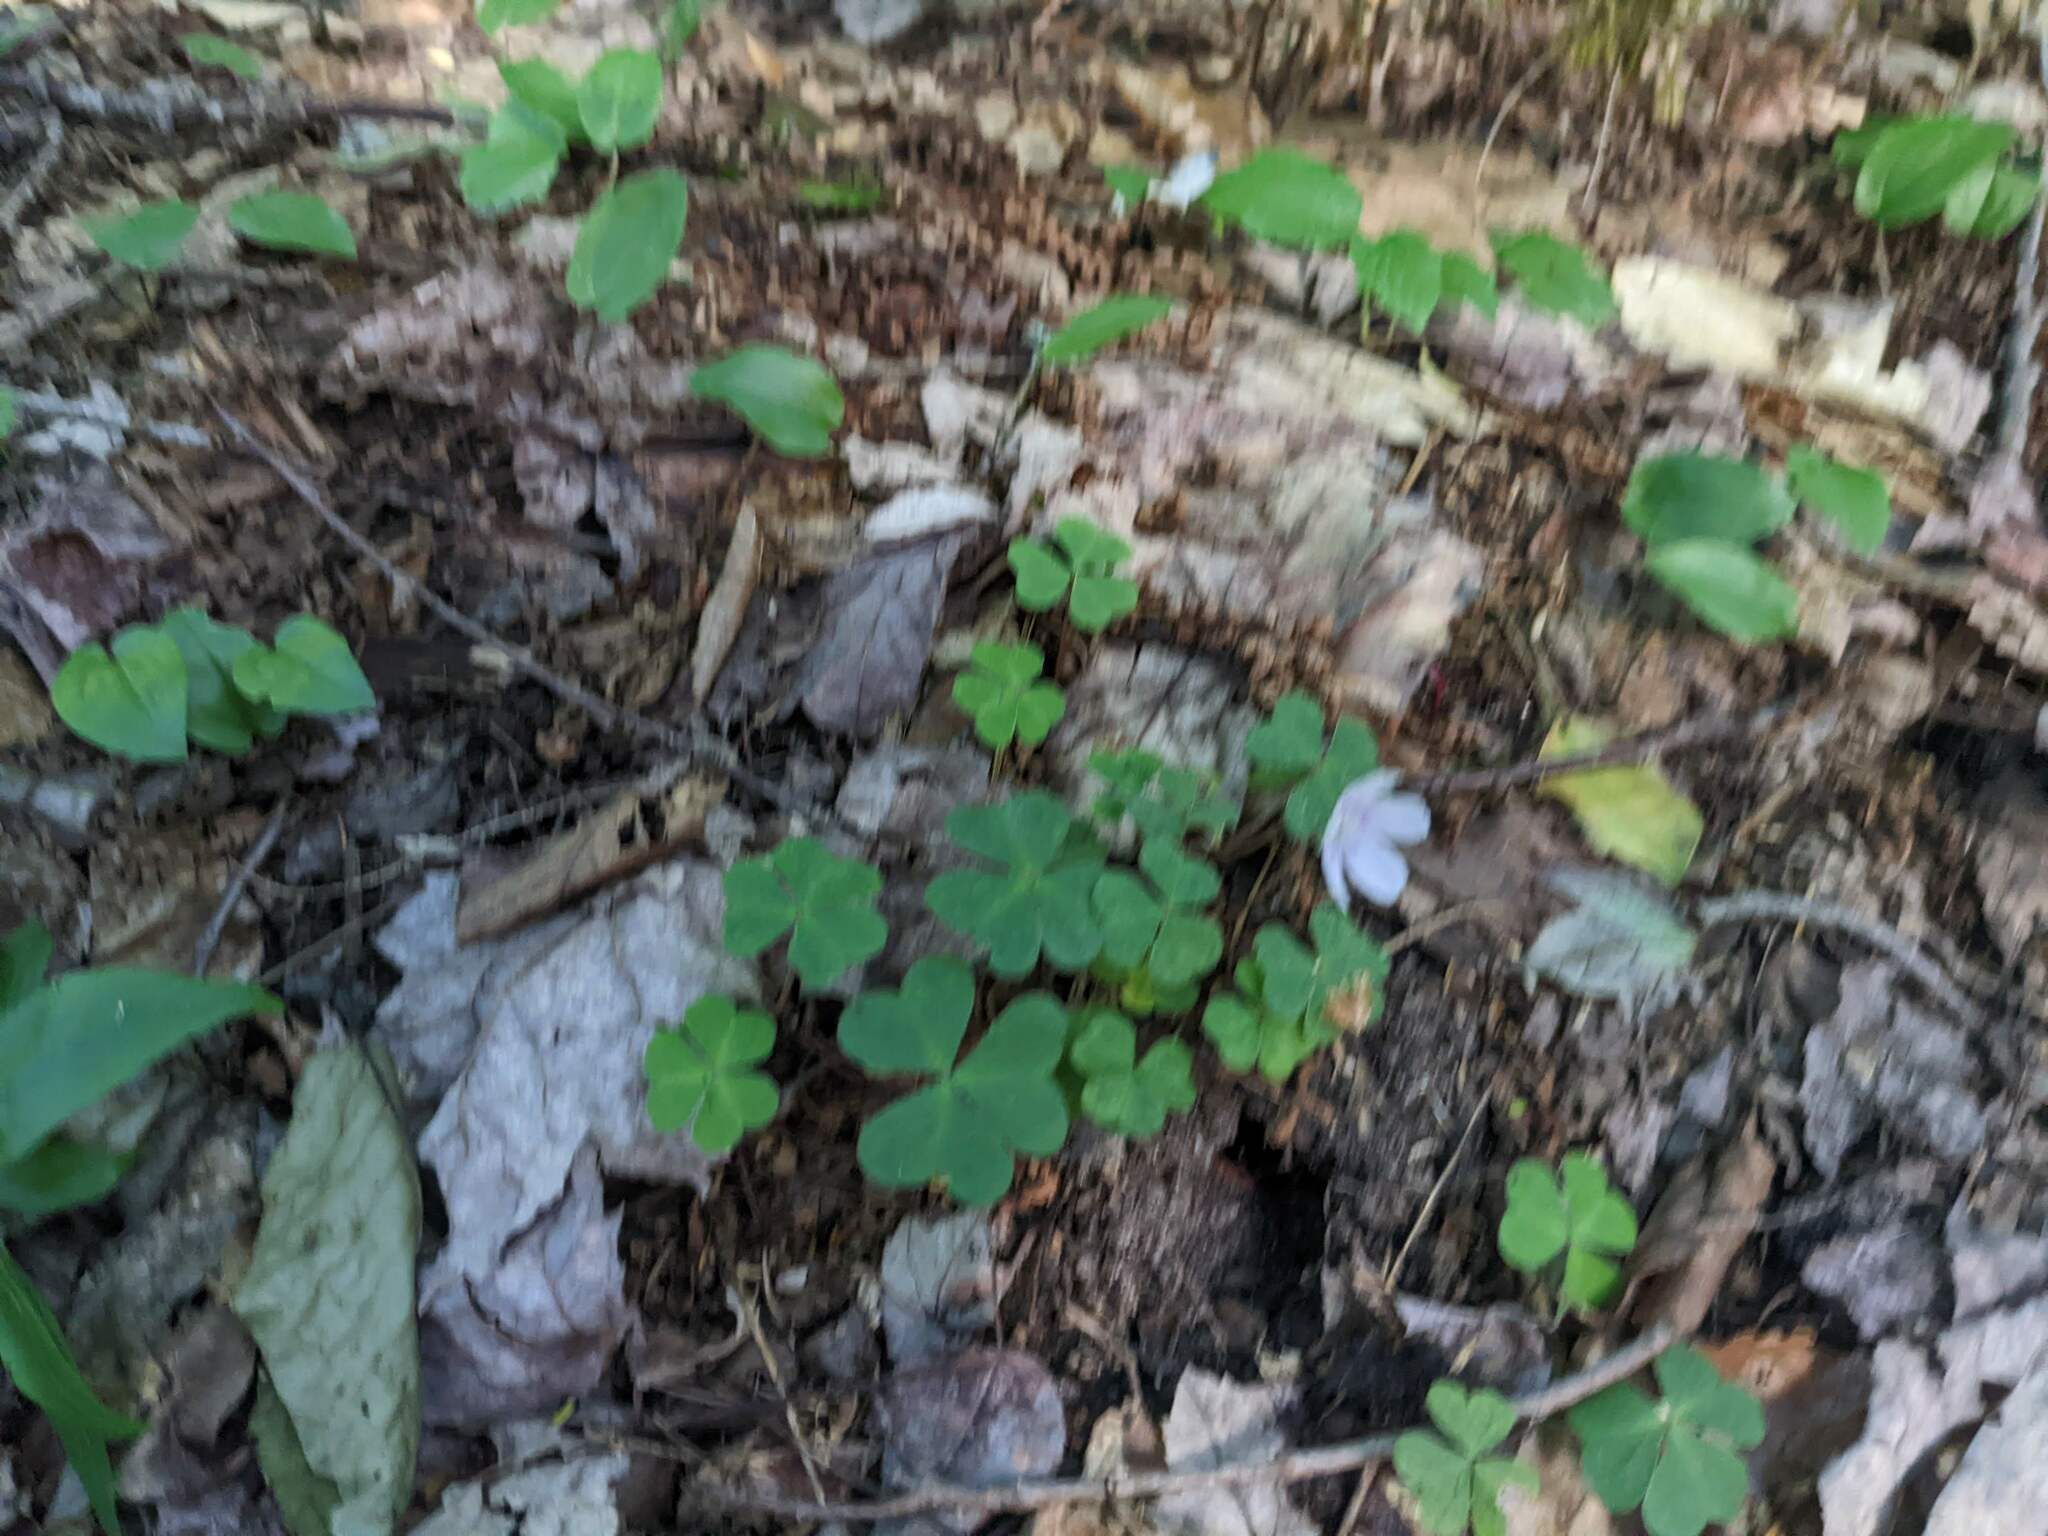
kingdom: Plantae
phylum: Tracheophyta
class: Magnoliopsida
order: Oxalidales
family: Oxalidaceae
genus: Oxalis
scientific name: Oxalis montana
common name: American wood-sorrel
